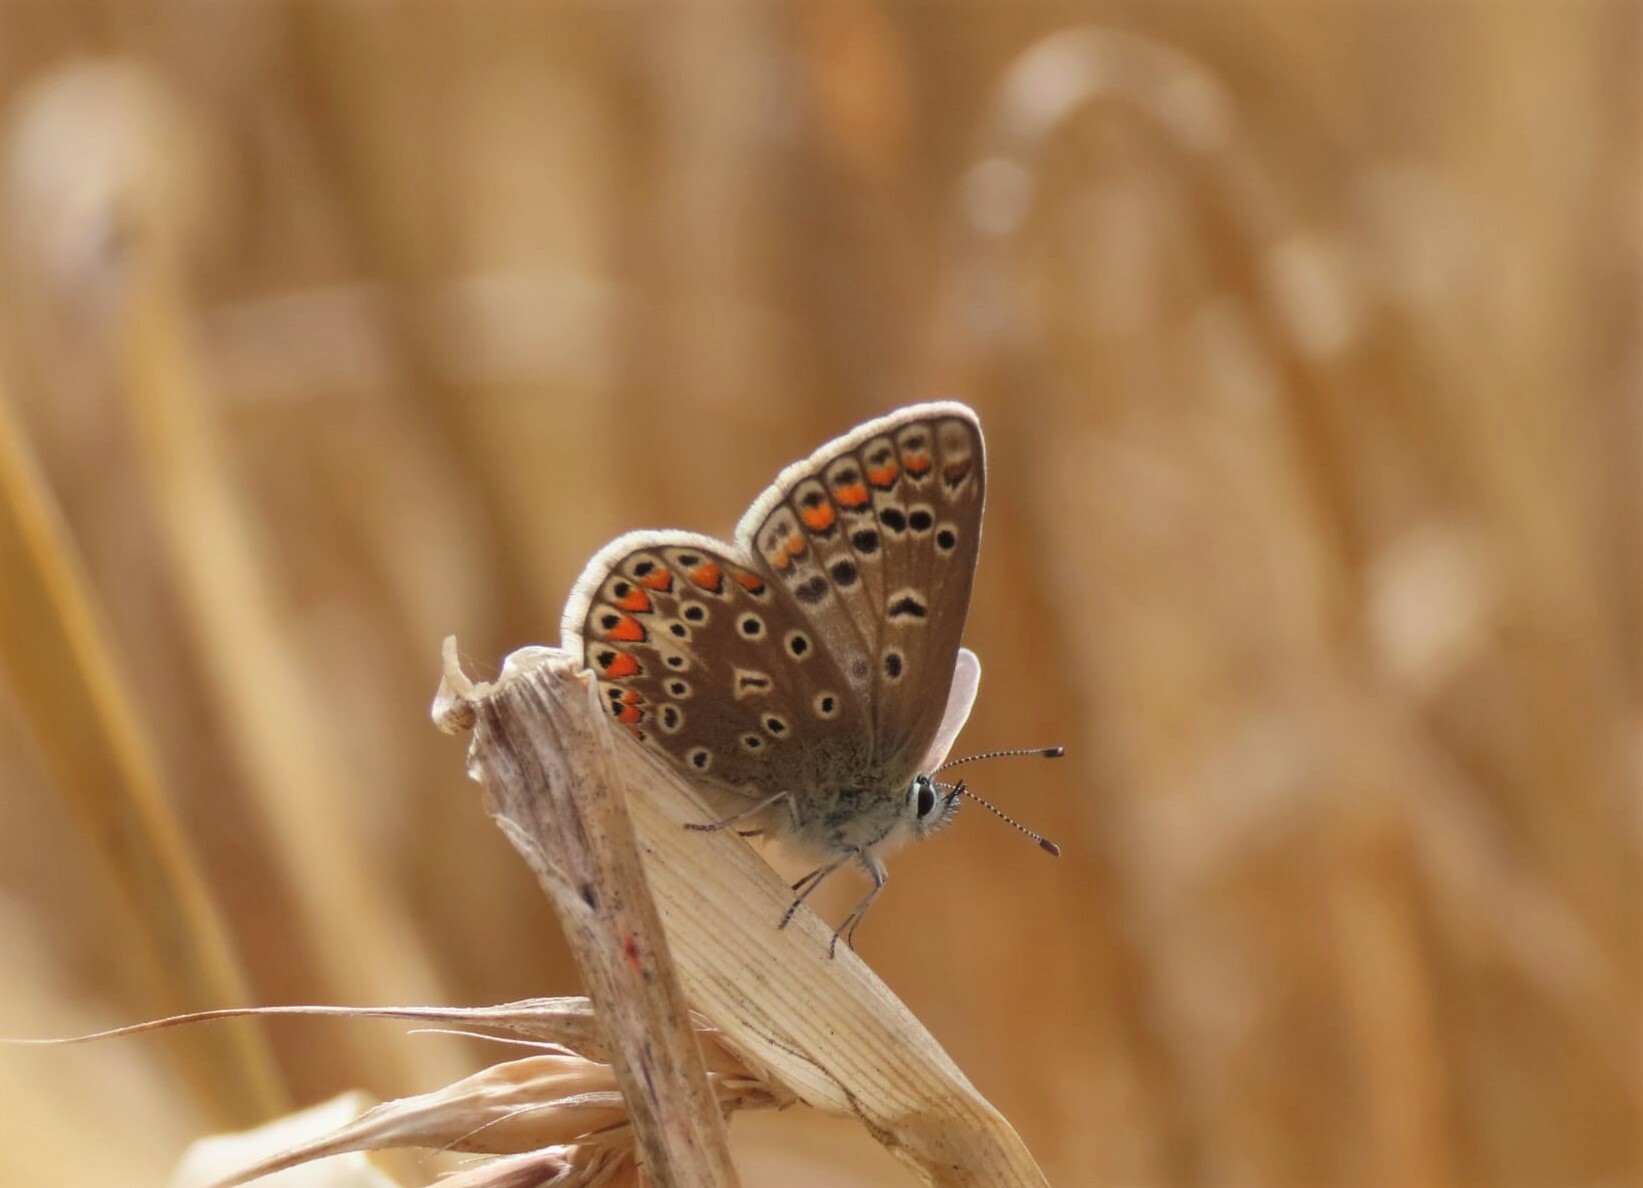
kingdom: Animalia
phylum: Arthropoda
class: Insecta
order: Lepidoptera
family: Lycaenidae
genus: Polyommatus
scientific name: Polyommatus icarus
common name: Common blue
